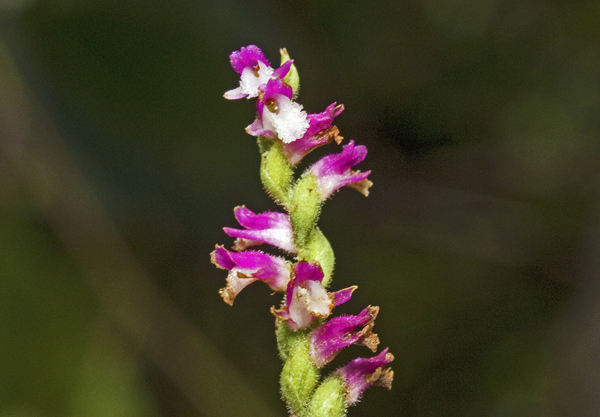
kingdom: Plantae
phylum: Tracheophyta
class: Liliopsida
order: Asparagales
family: Orchidaceae
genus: Spiranthes
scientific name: Spiranthes australis
